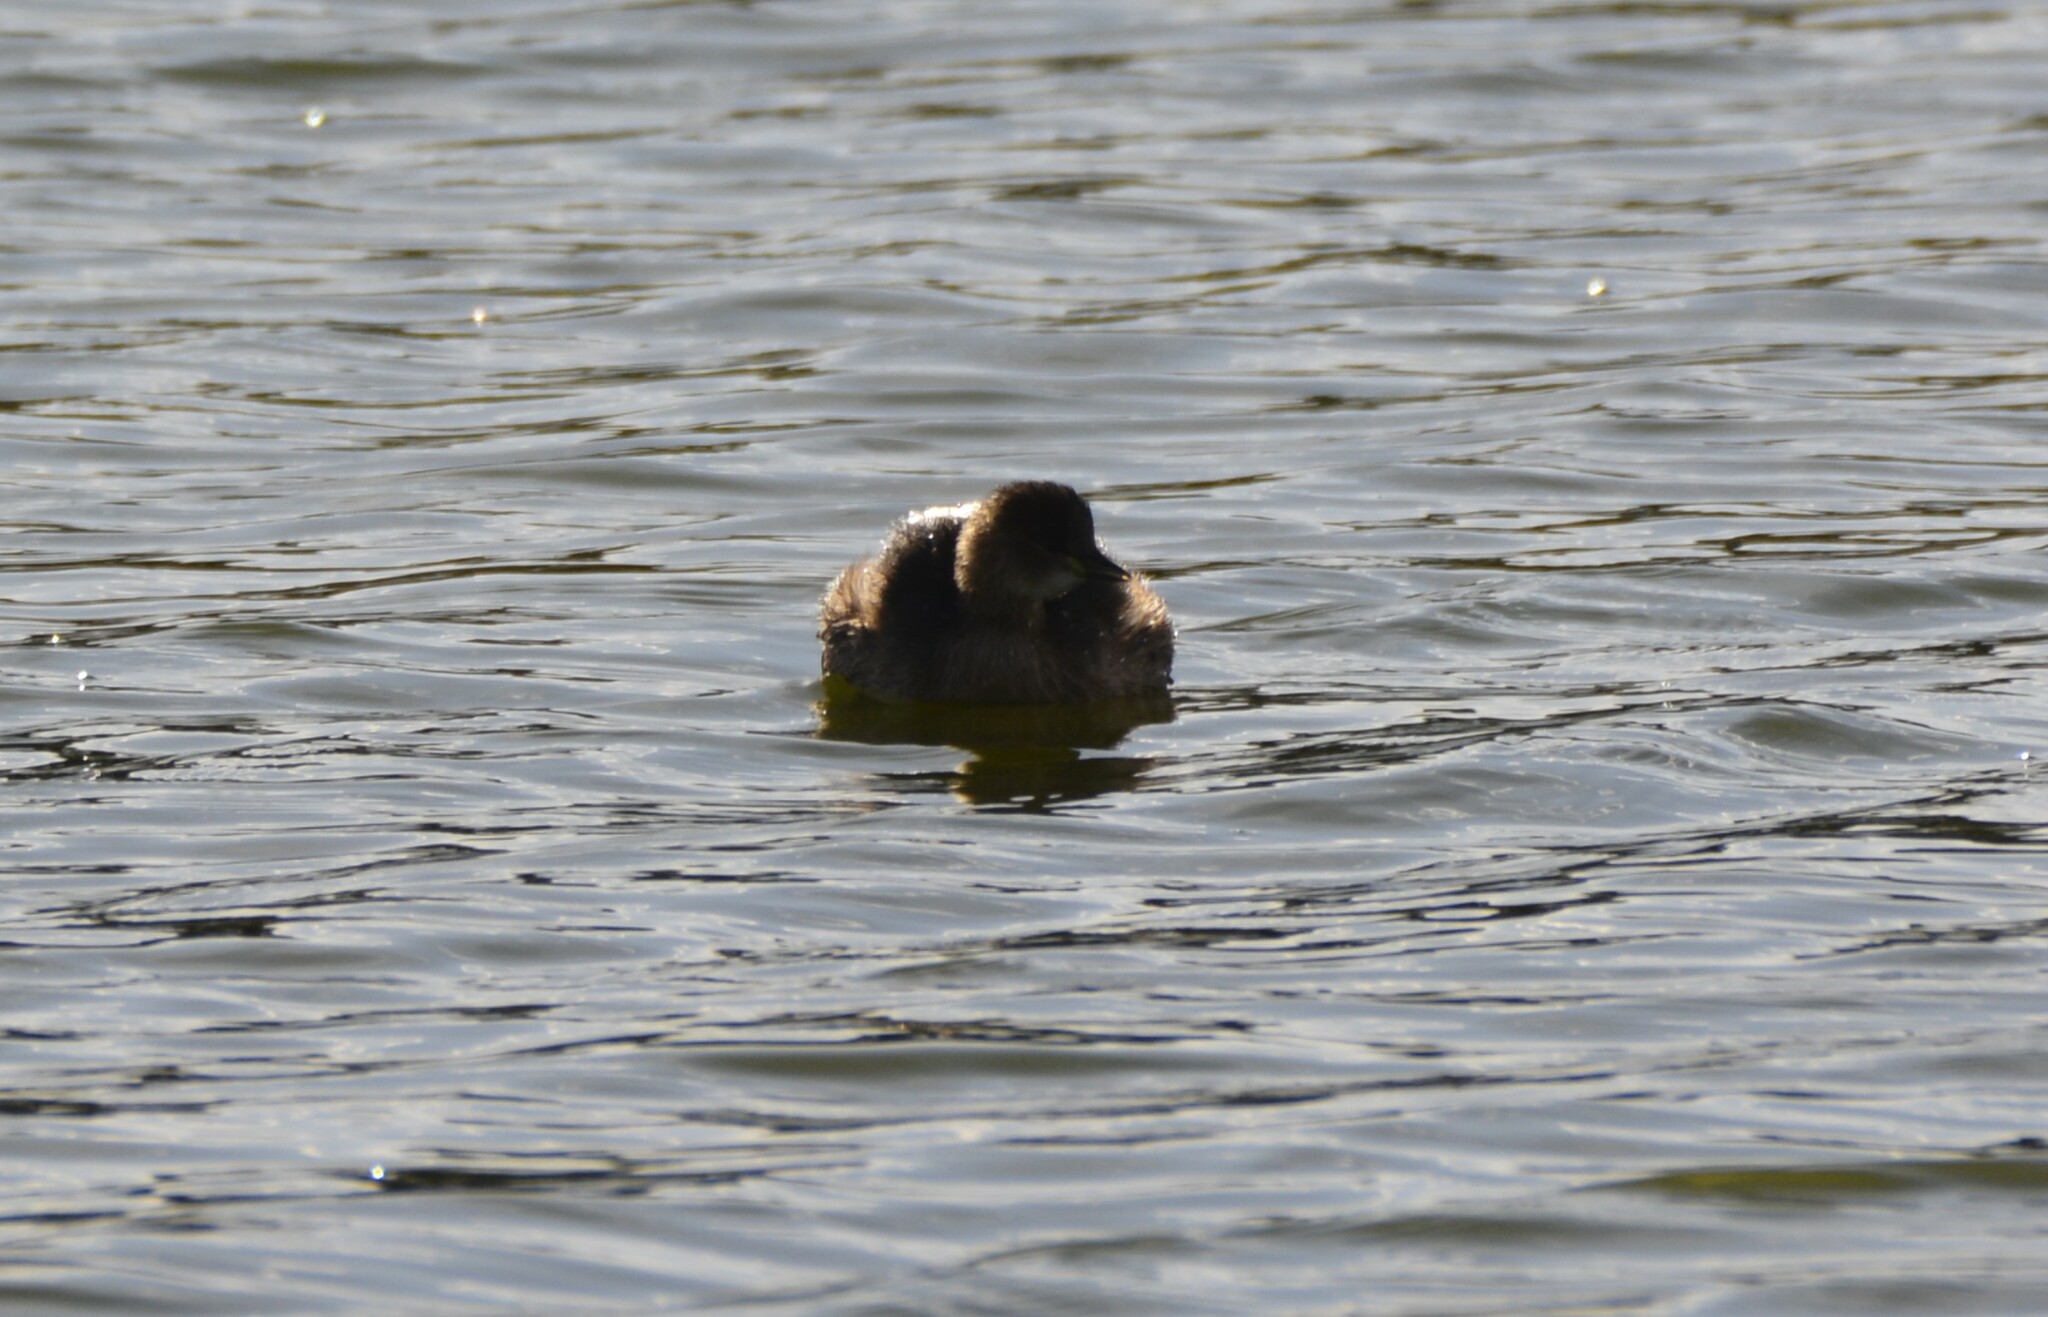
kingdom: Animalia
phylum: Chordata
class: Aves
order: Podicipediformes
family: Podicipedidae
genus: Tachybaptus
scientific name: Tachybaptus ruficollis
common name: Little grebe
